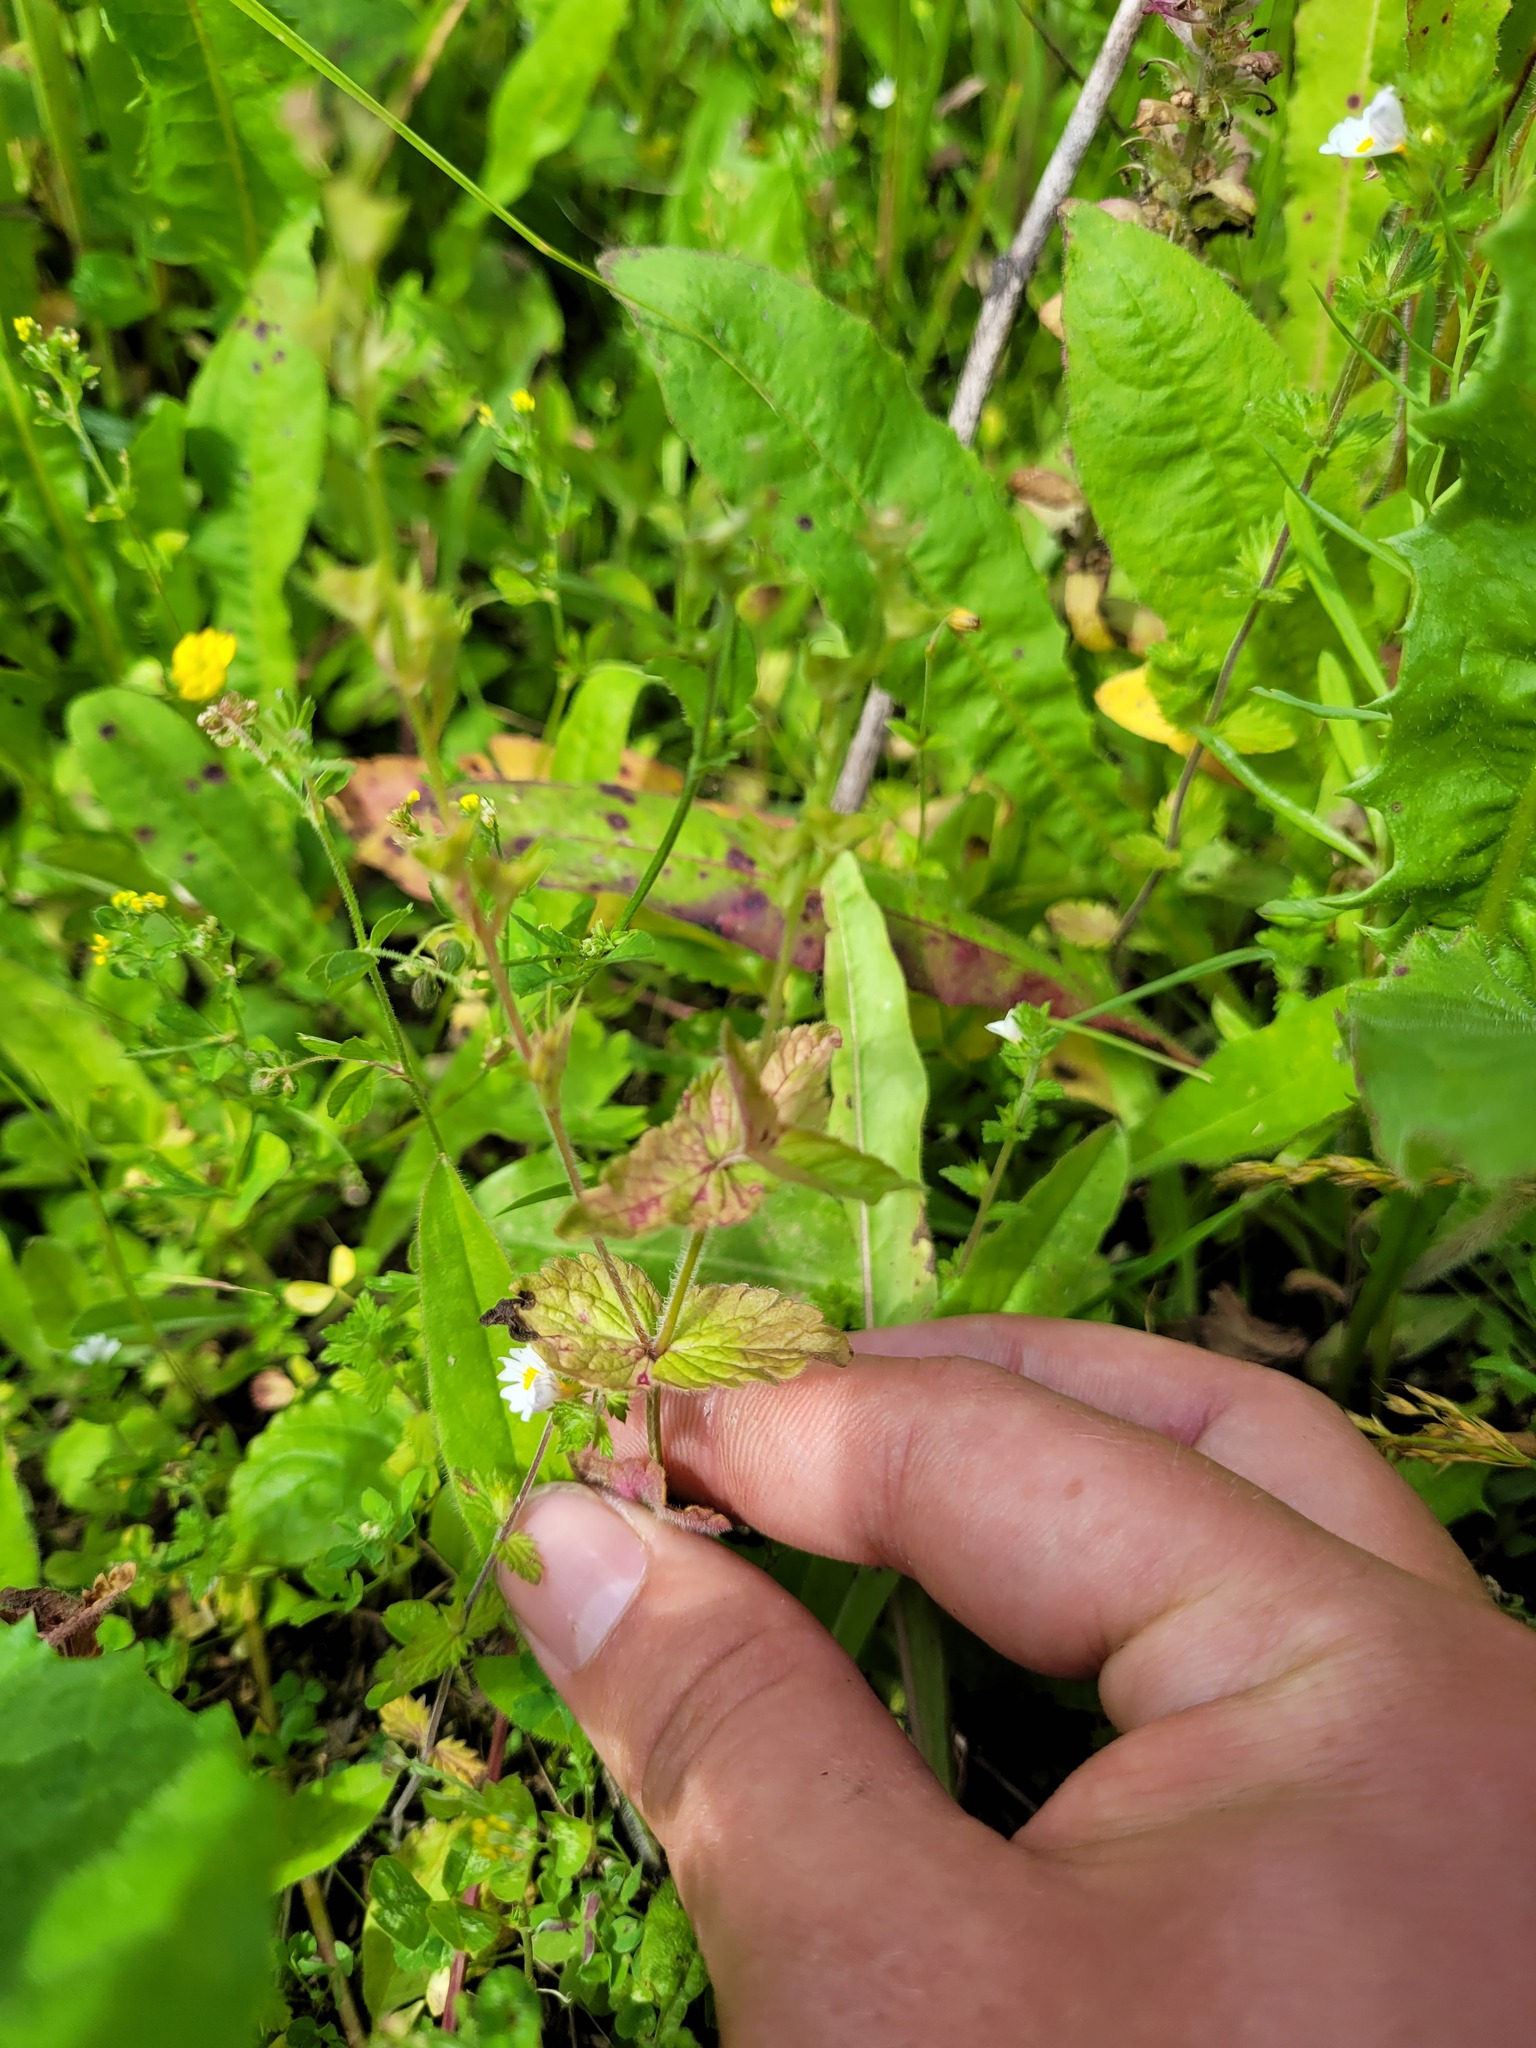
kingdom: Plantae
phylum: Tracheophyta
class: Magnoliopsida
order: Lamiales
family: Plantaginaceae
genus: Veronica
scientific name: Veronica chamaedrys
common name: Germander speedwell
